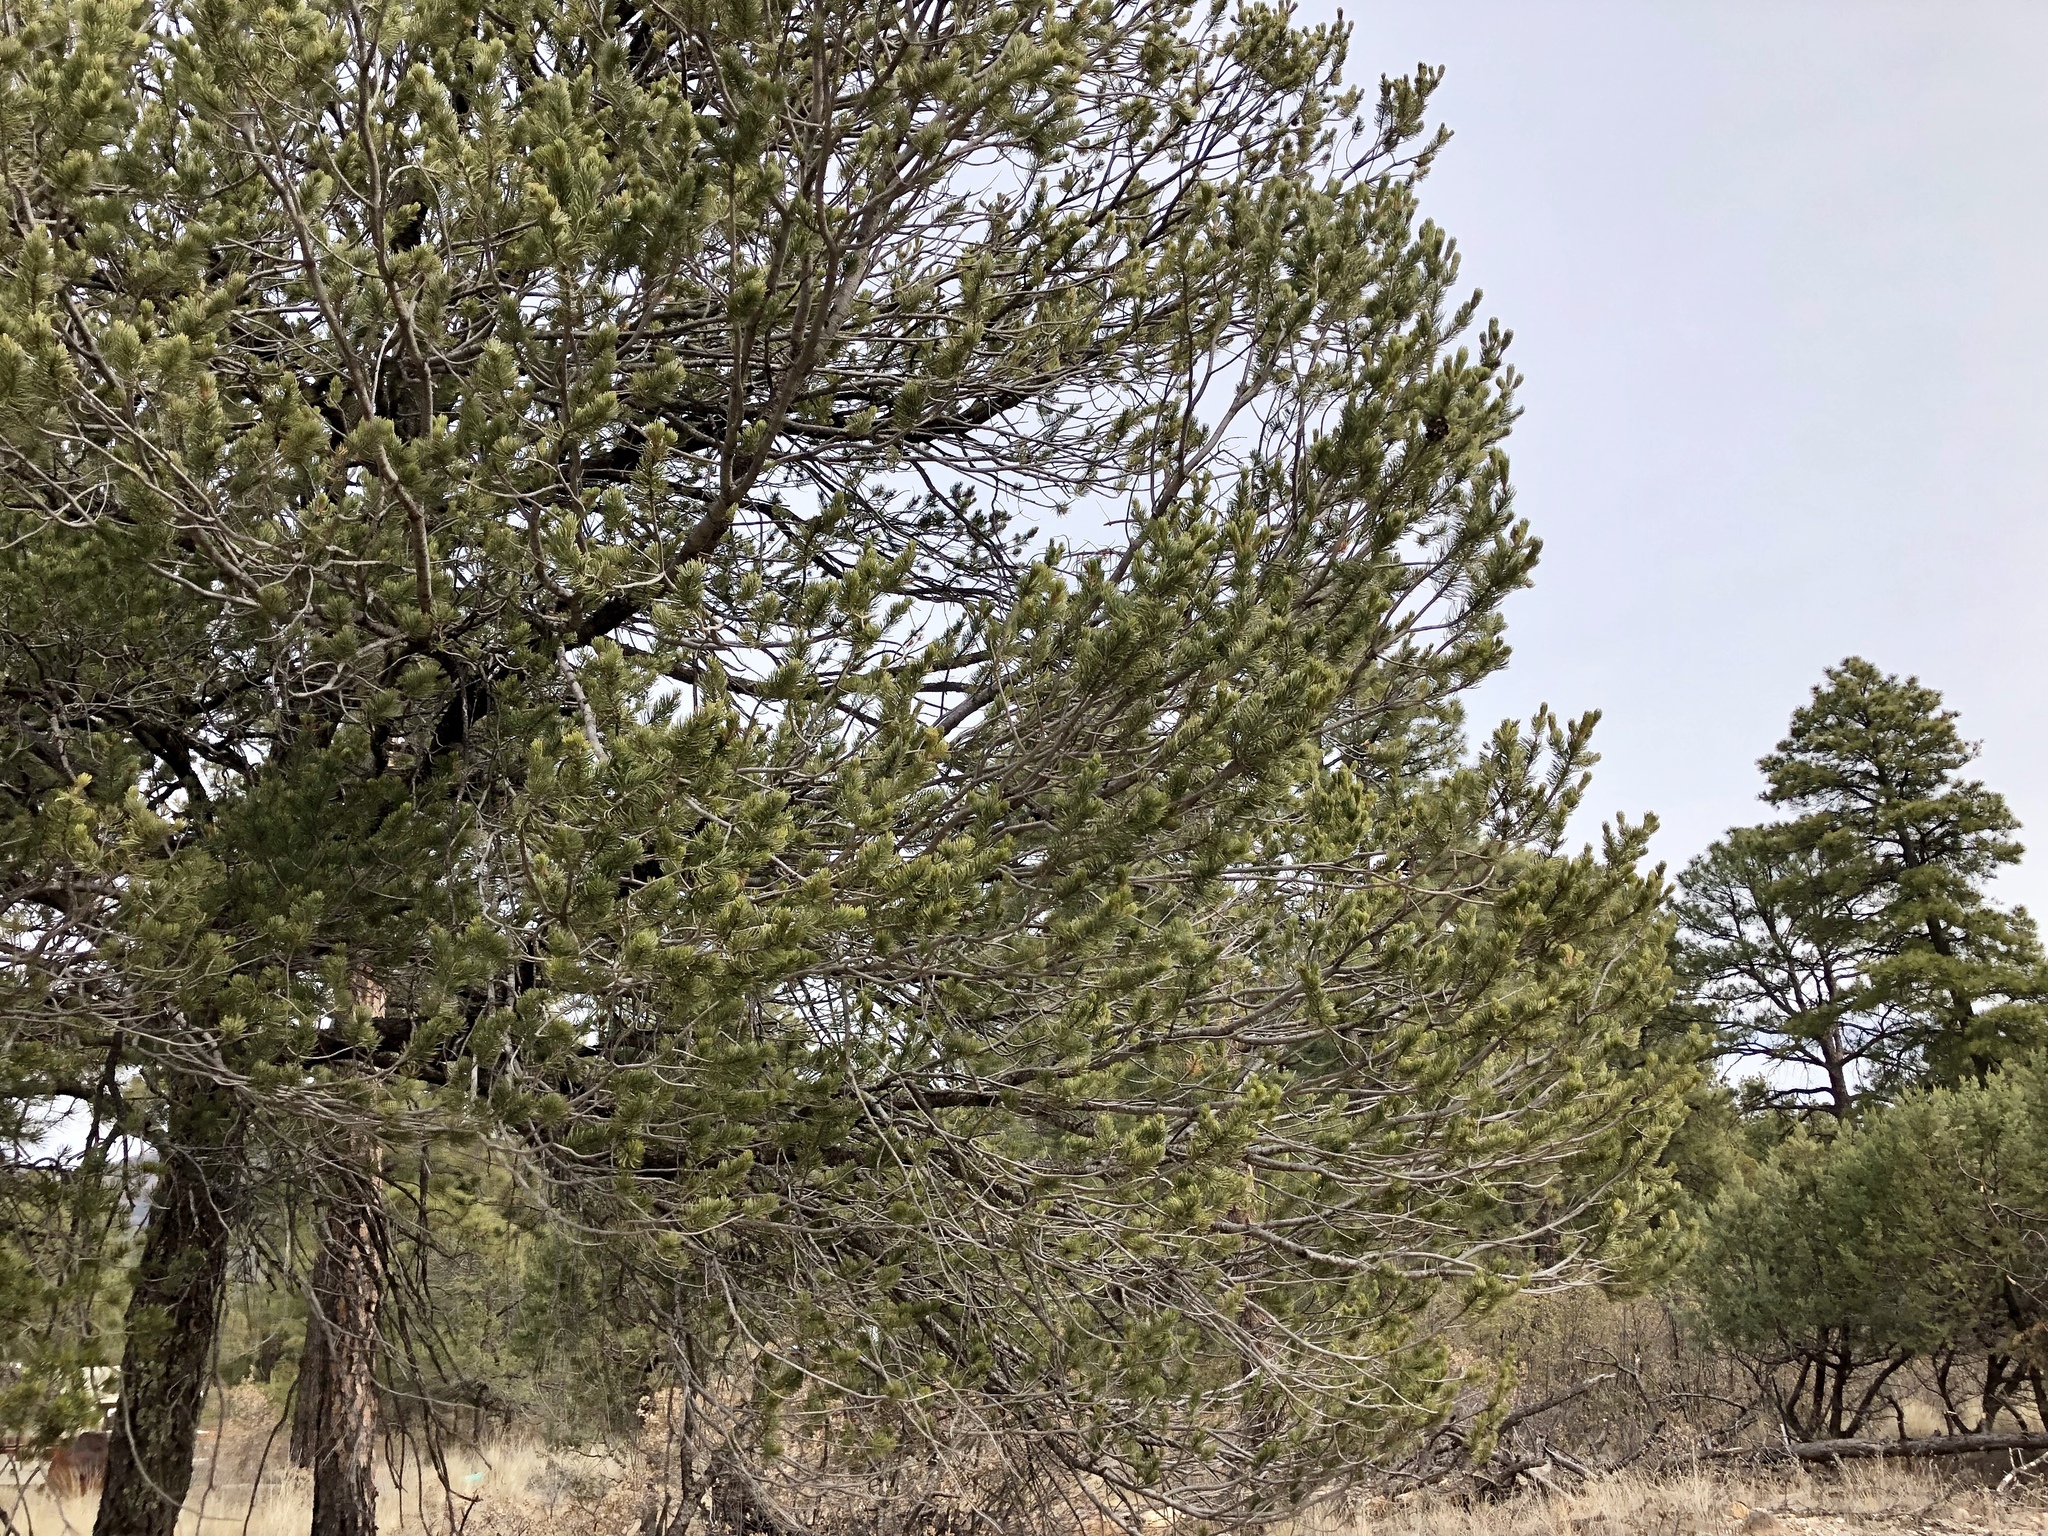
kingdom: Plantae
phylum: Tracheophyta
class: Pinopsida
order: Pinales
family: Pinaceae
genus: Pinus
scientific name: Pinus edulis
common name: Colorado pinyon
